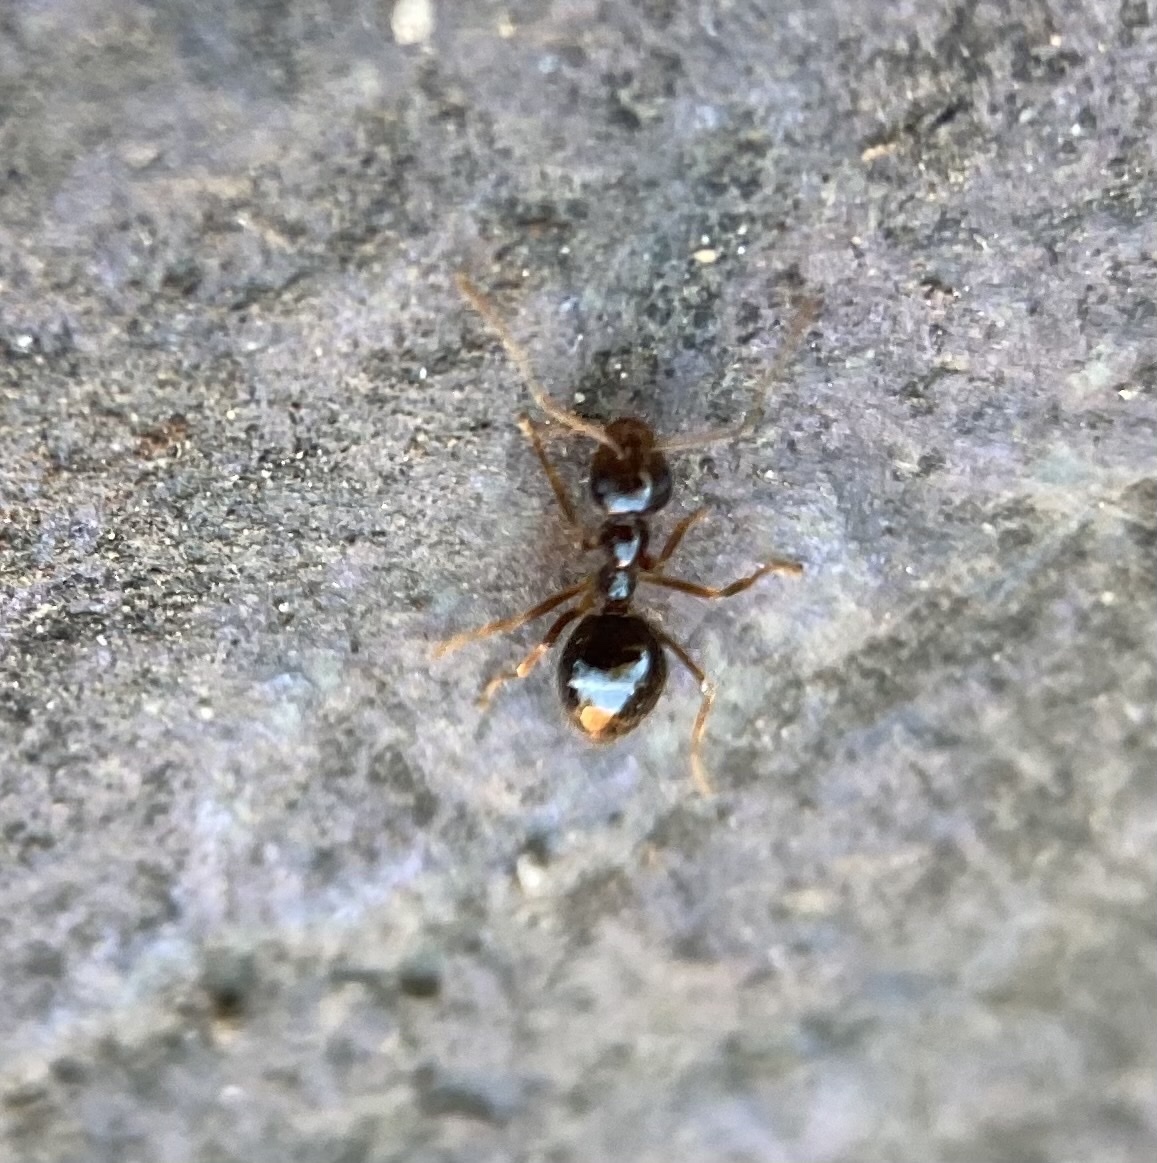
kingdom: Animalia
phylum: Arthropoda
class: Insecta
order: Hymenoptera
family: Formicidae
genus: Prenolepis
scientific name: Prenolepis imparis
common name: Small honey ant
